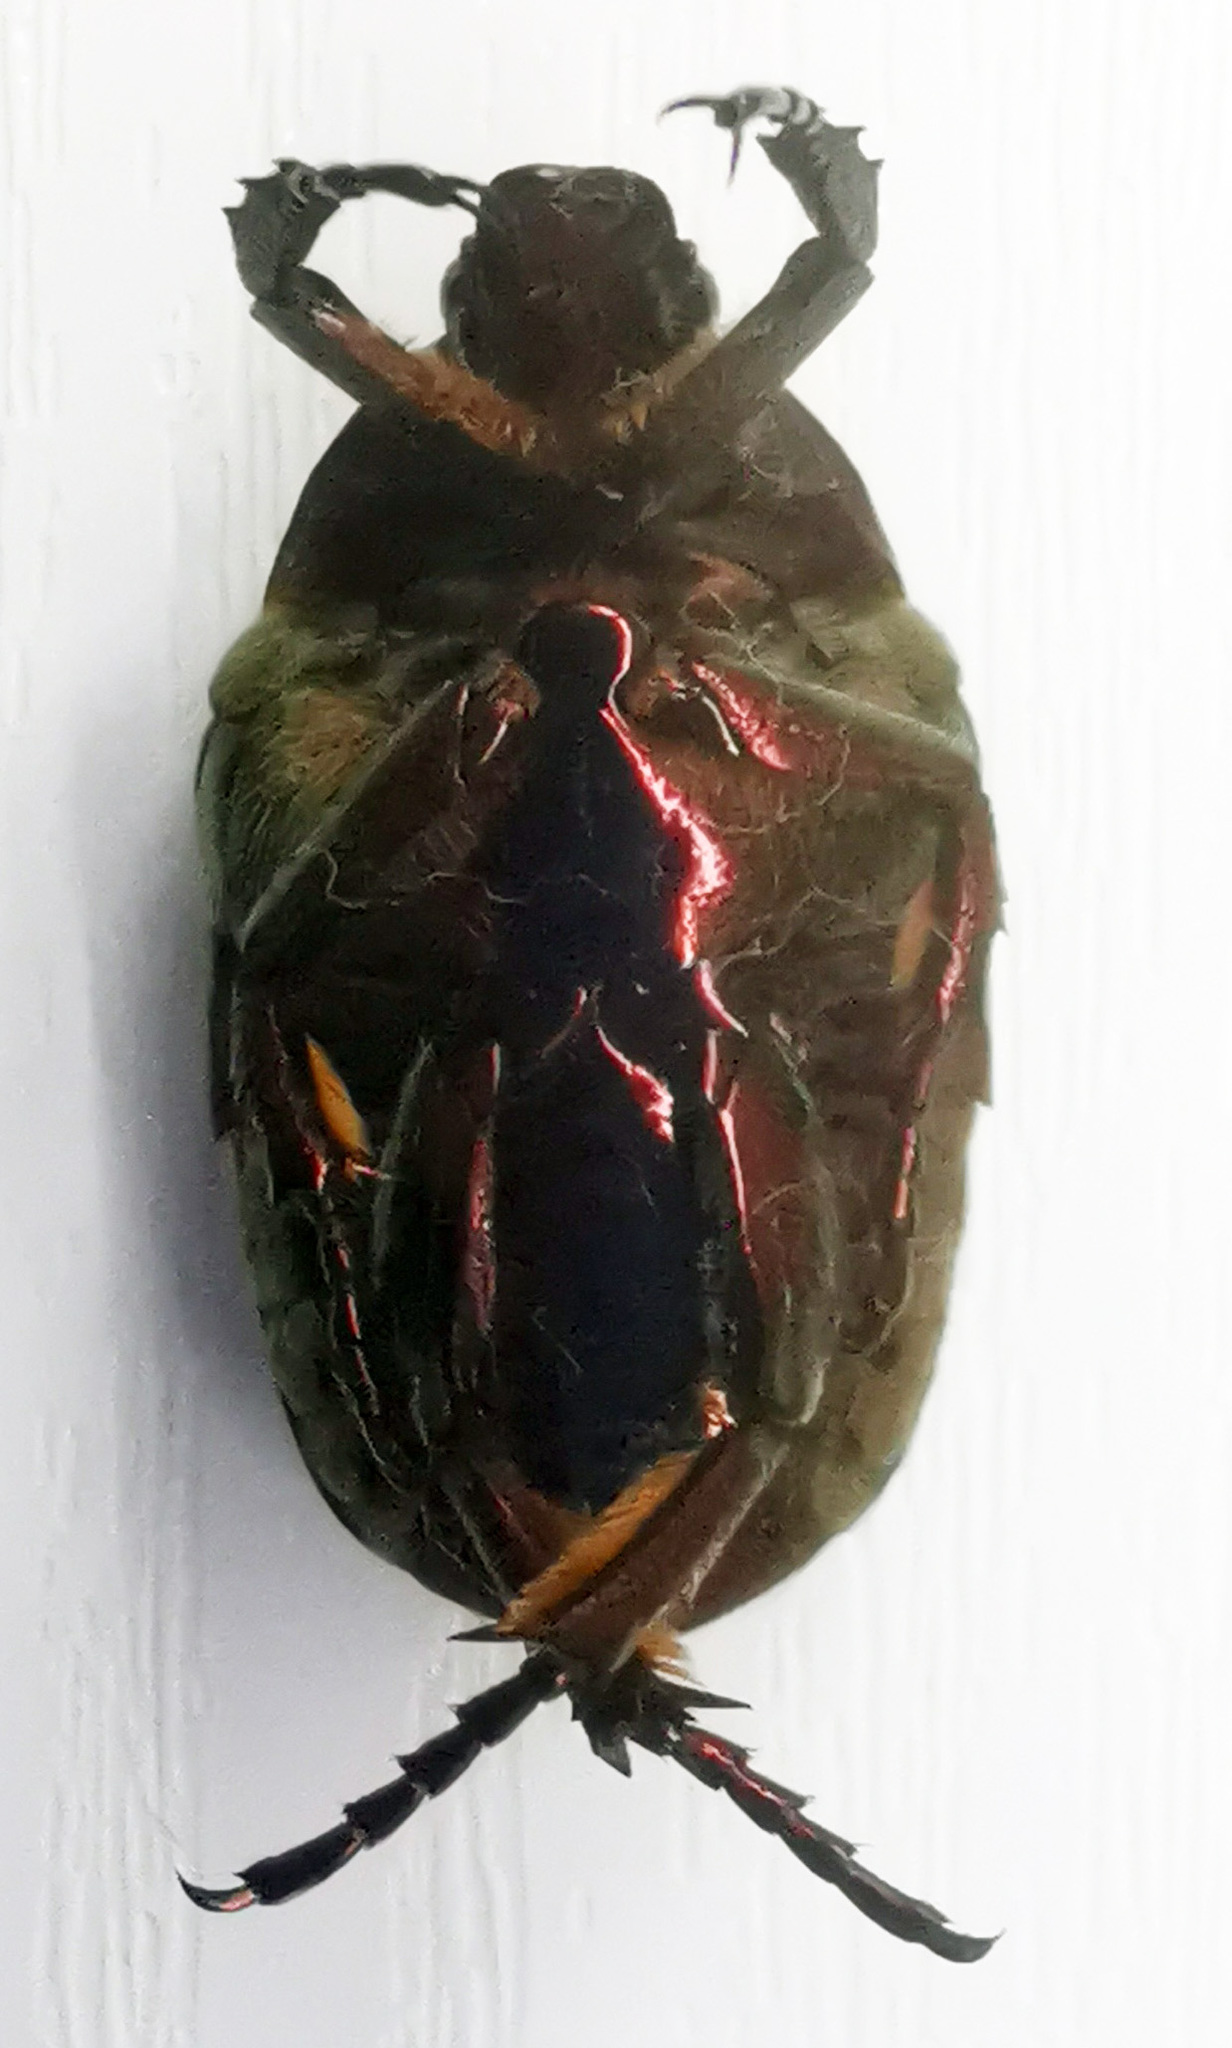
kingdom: Animalia
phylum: Arthropoda
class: Insecta
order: Coleoptera
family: Scarabaeidae
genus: Protaetia
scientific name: Protaetia fieberi
